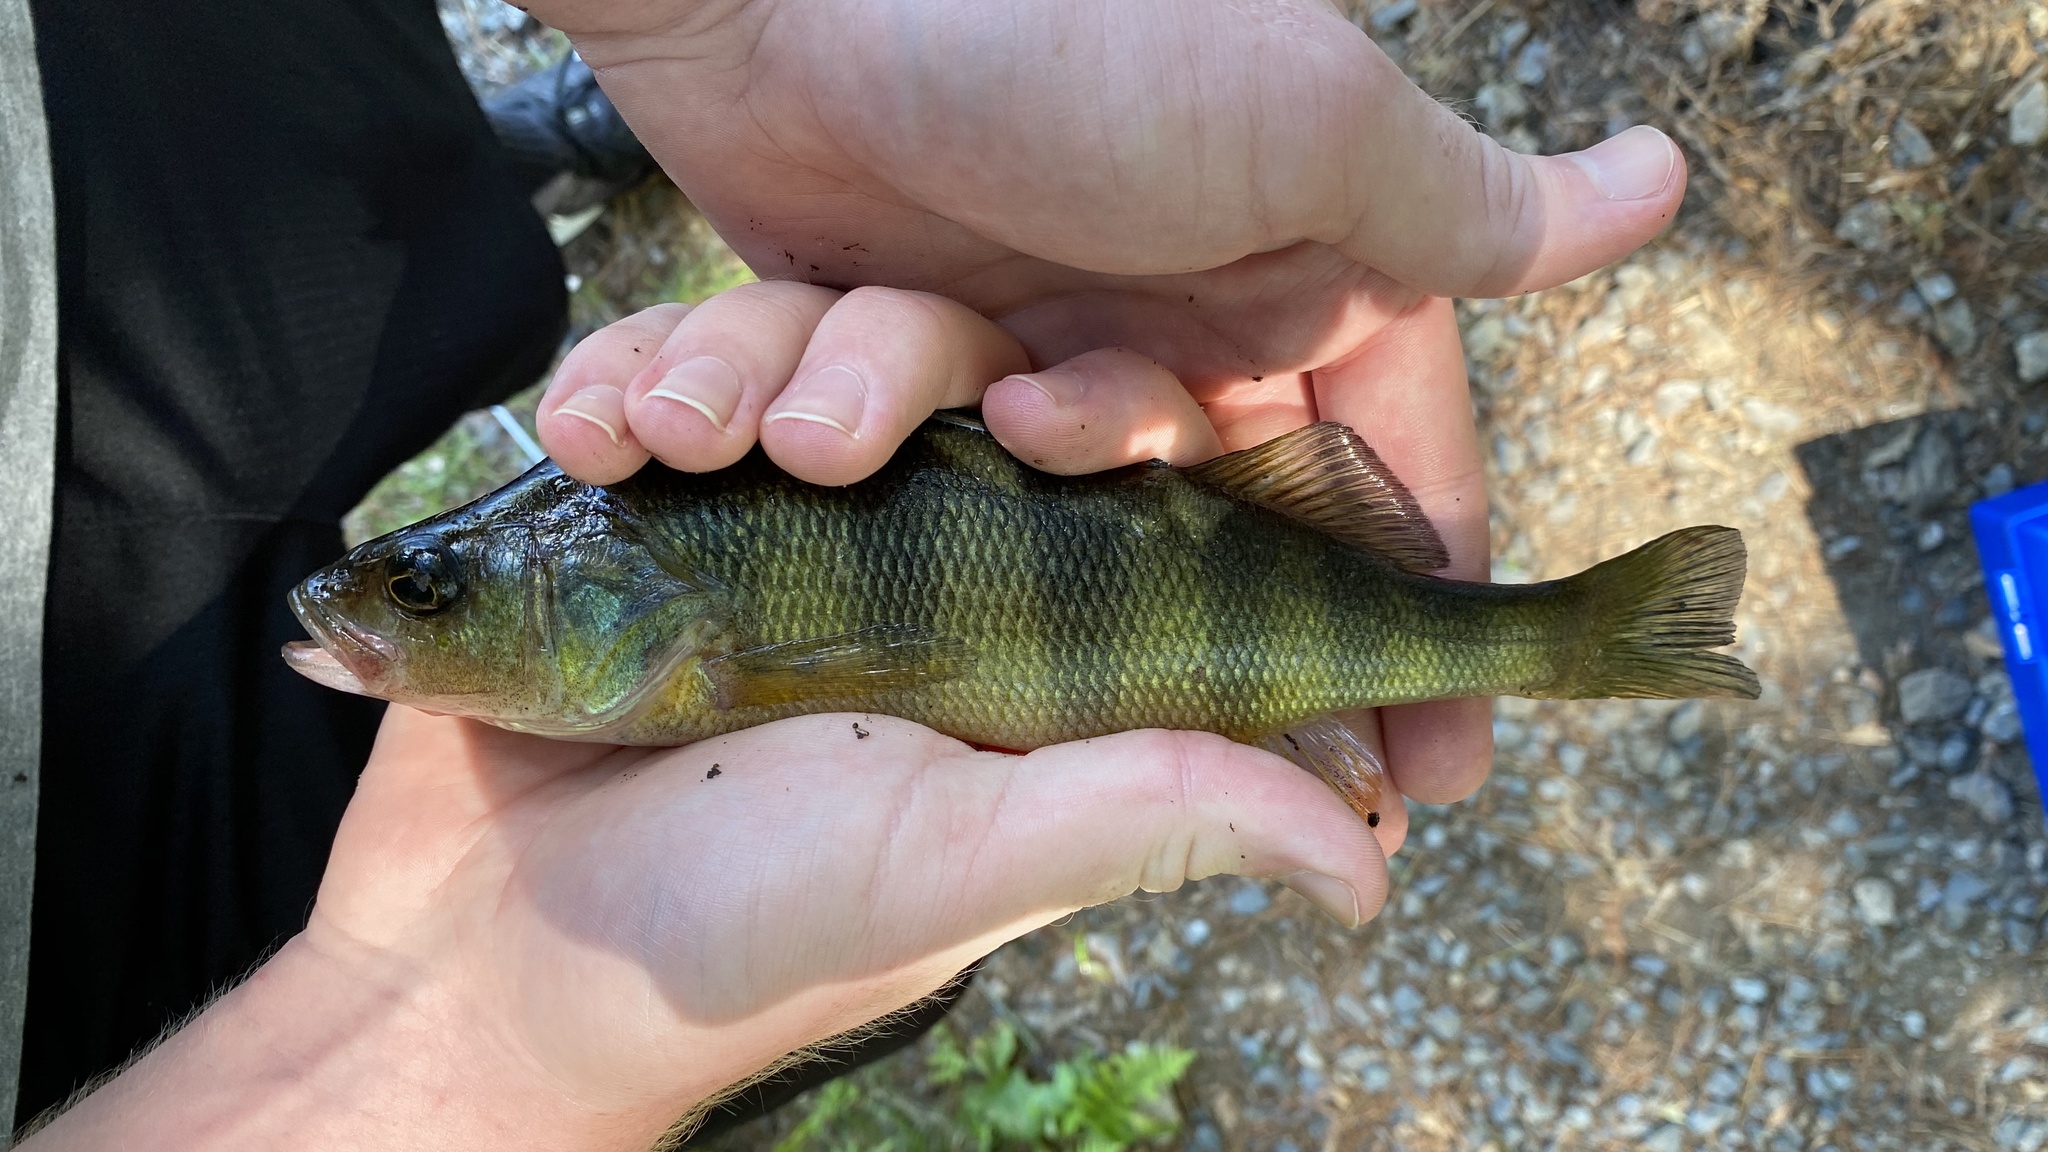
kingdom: Animalia
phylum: Chordata
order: Perciformes
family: Percidae
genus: Perca
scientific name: Perca flavescens
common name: Yellow perch
